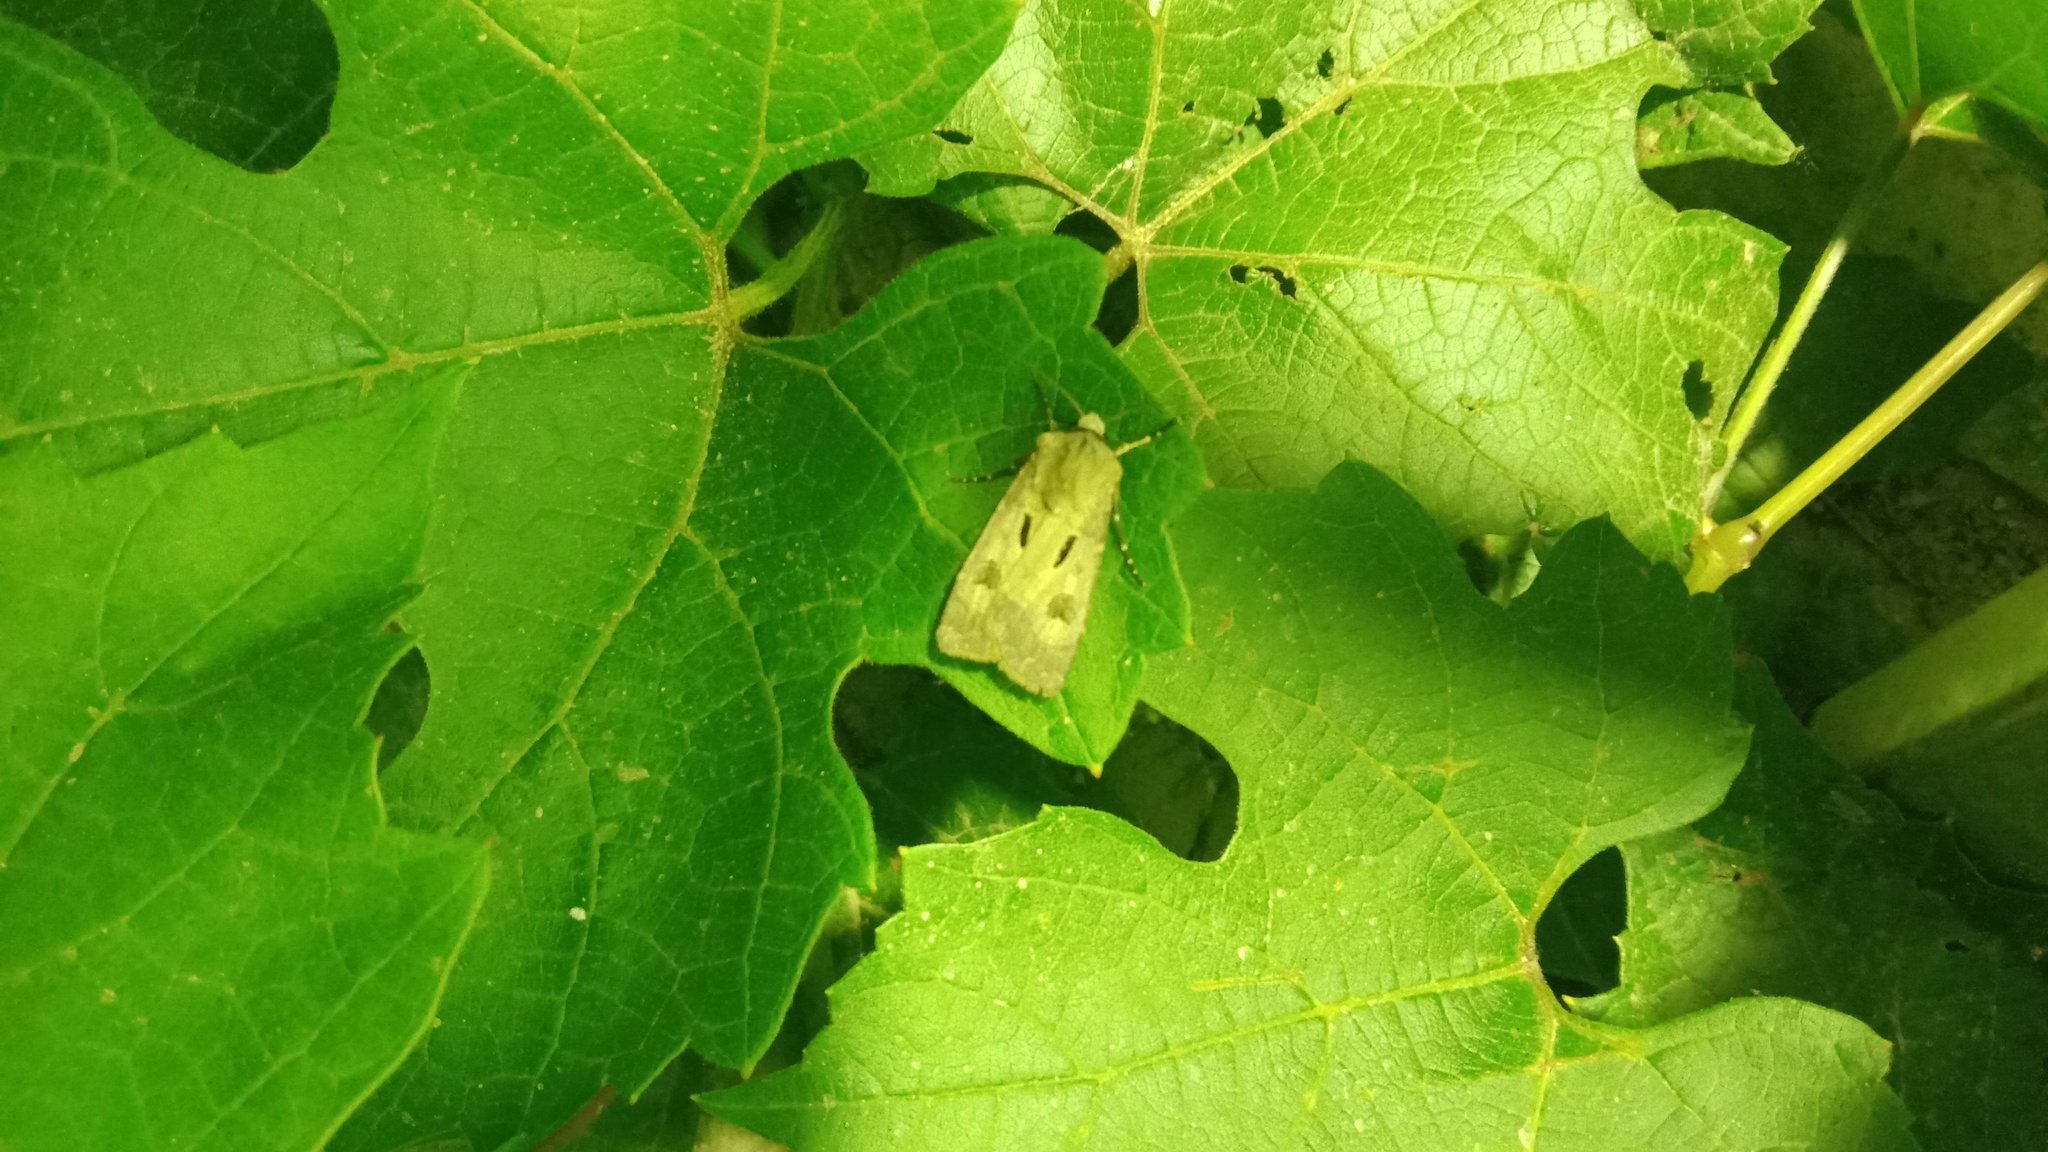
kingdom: Animalia
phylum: Arthropoda
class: Insecta
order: Lepidoptera
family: Noctuidae
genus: Agrotis
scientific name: Agrotis exclamationis
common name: Heart and dart
